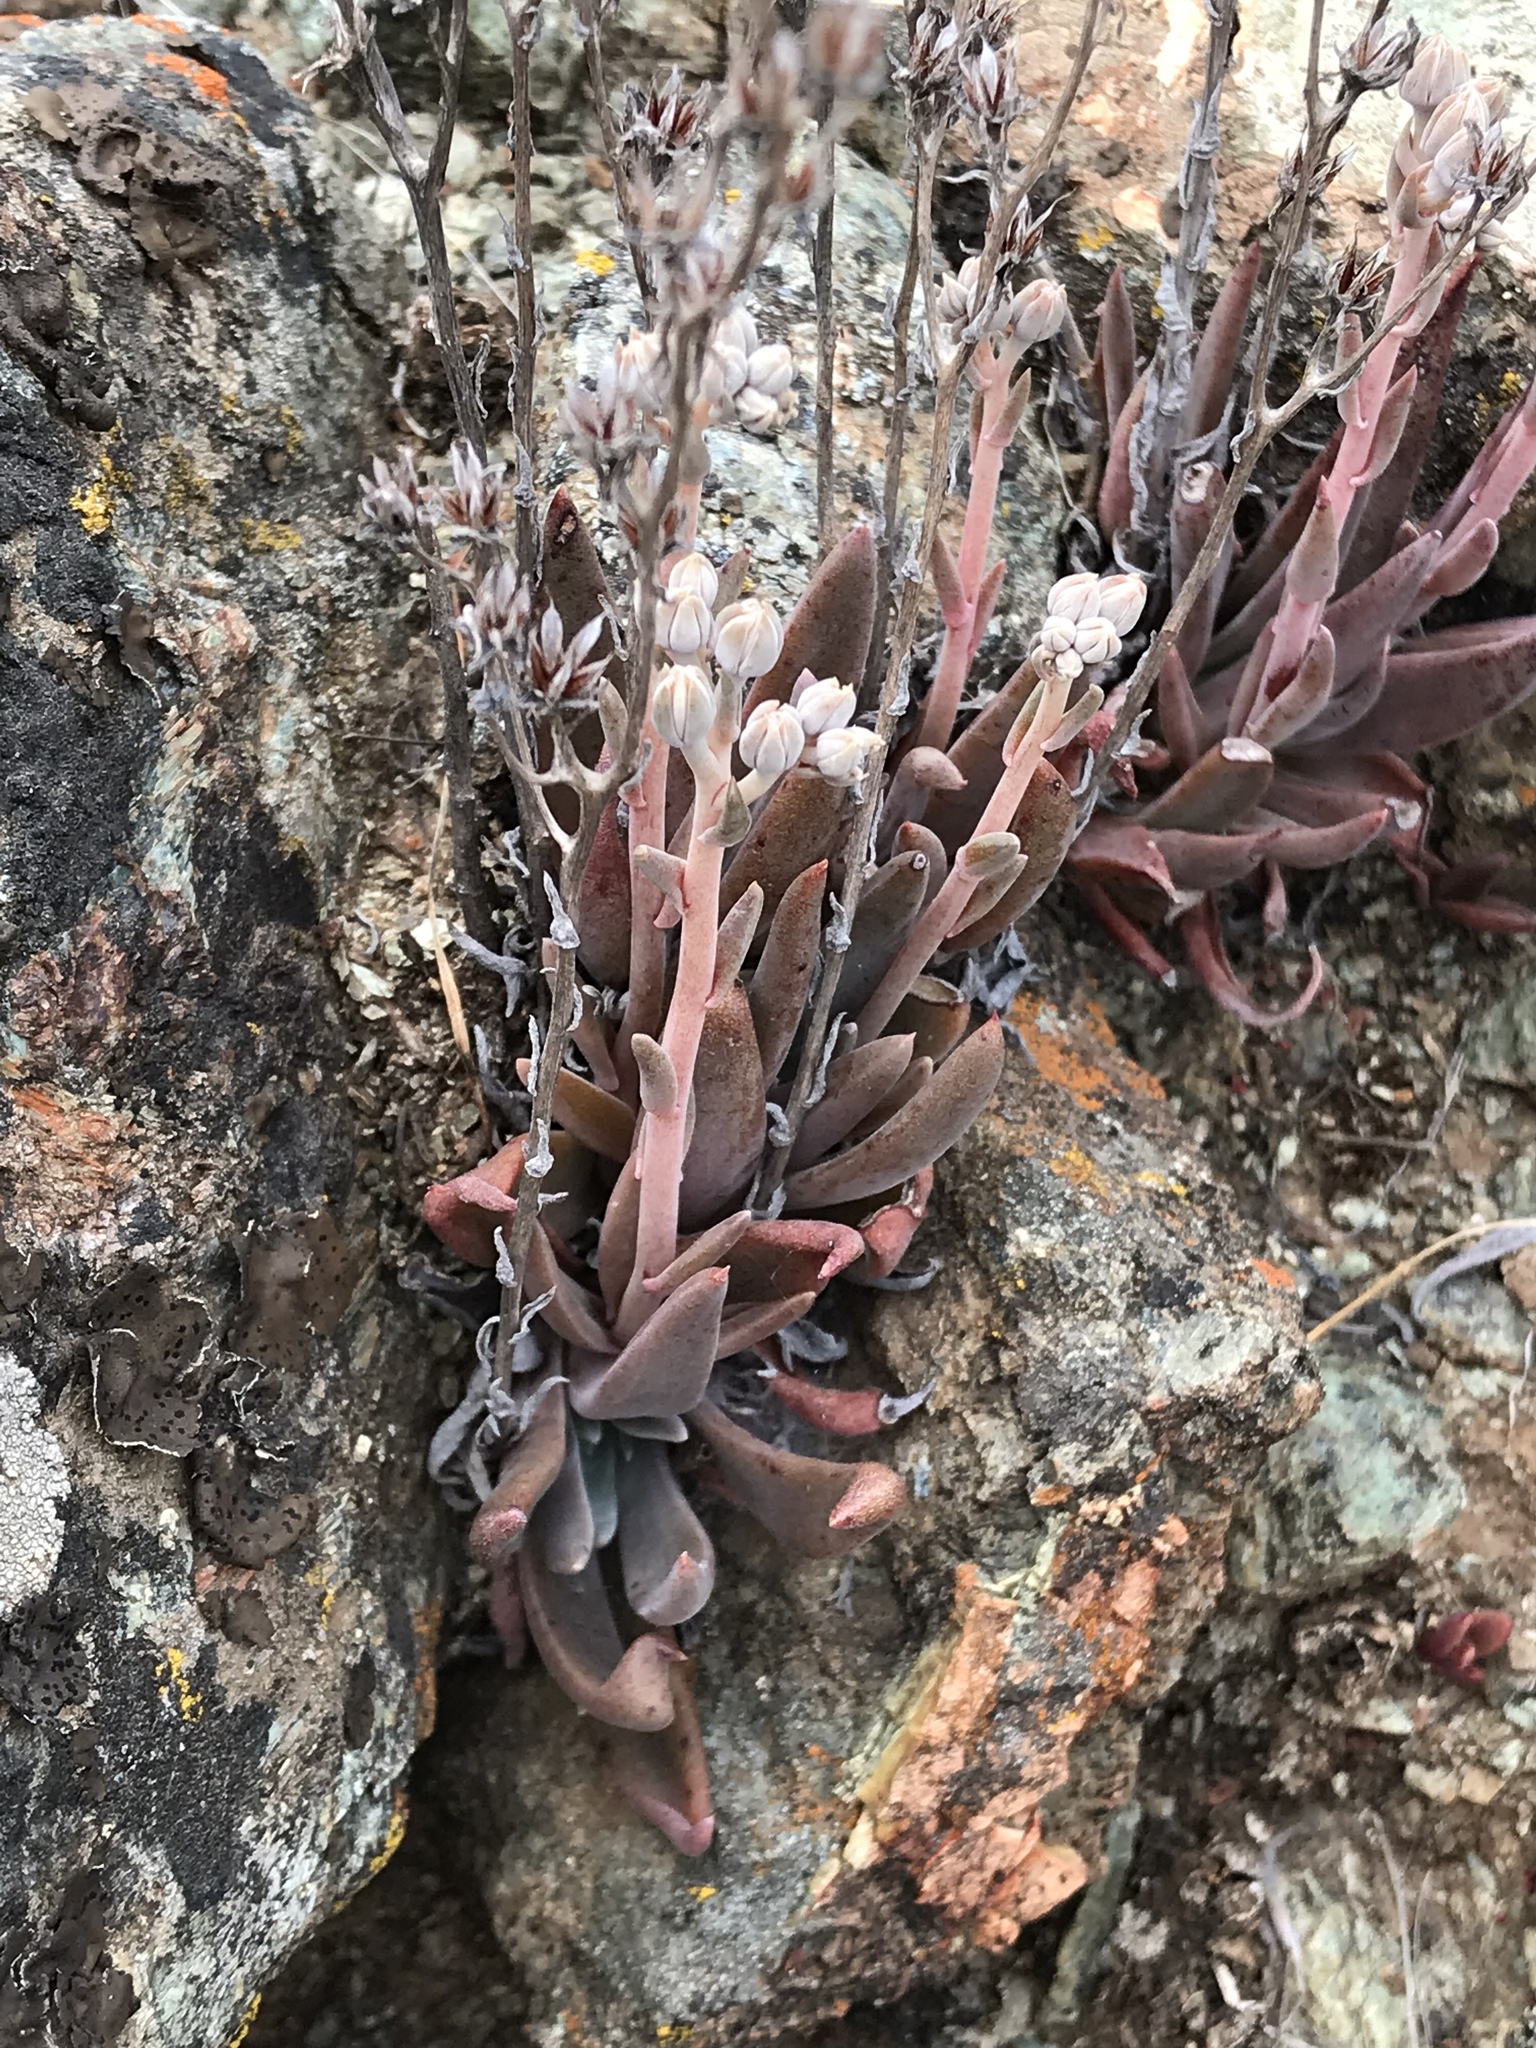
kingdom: Plantae
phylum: Tracheophyta
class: Magnoliopsida
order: Saxifragales
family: Crassulaceae
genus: Dudleya
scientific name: Dudleya abramsii
